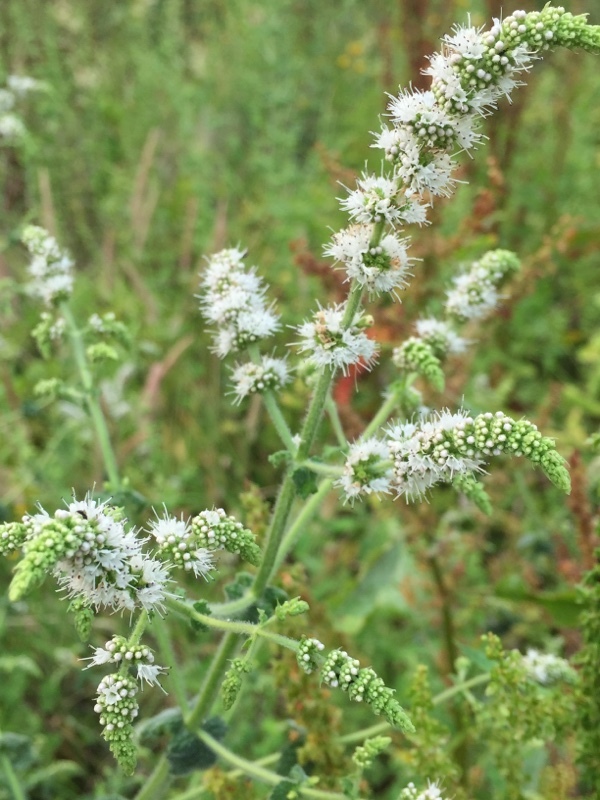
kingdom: Plantae
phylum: Tracheophyta
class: Magnoliopsida
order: Lamiales
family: Lamiaceae
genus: Mentha
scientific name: Mentha suaveolens
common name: Apple mint
